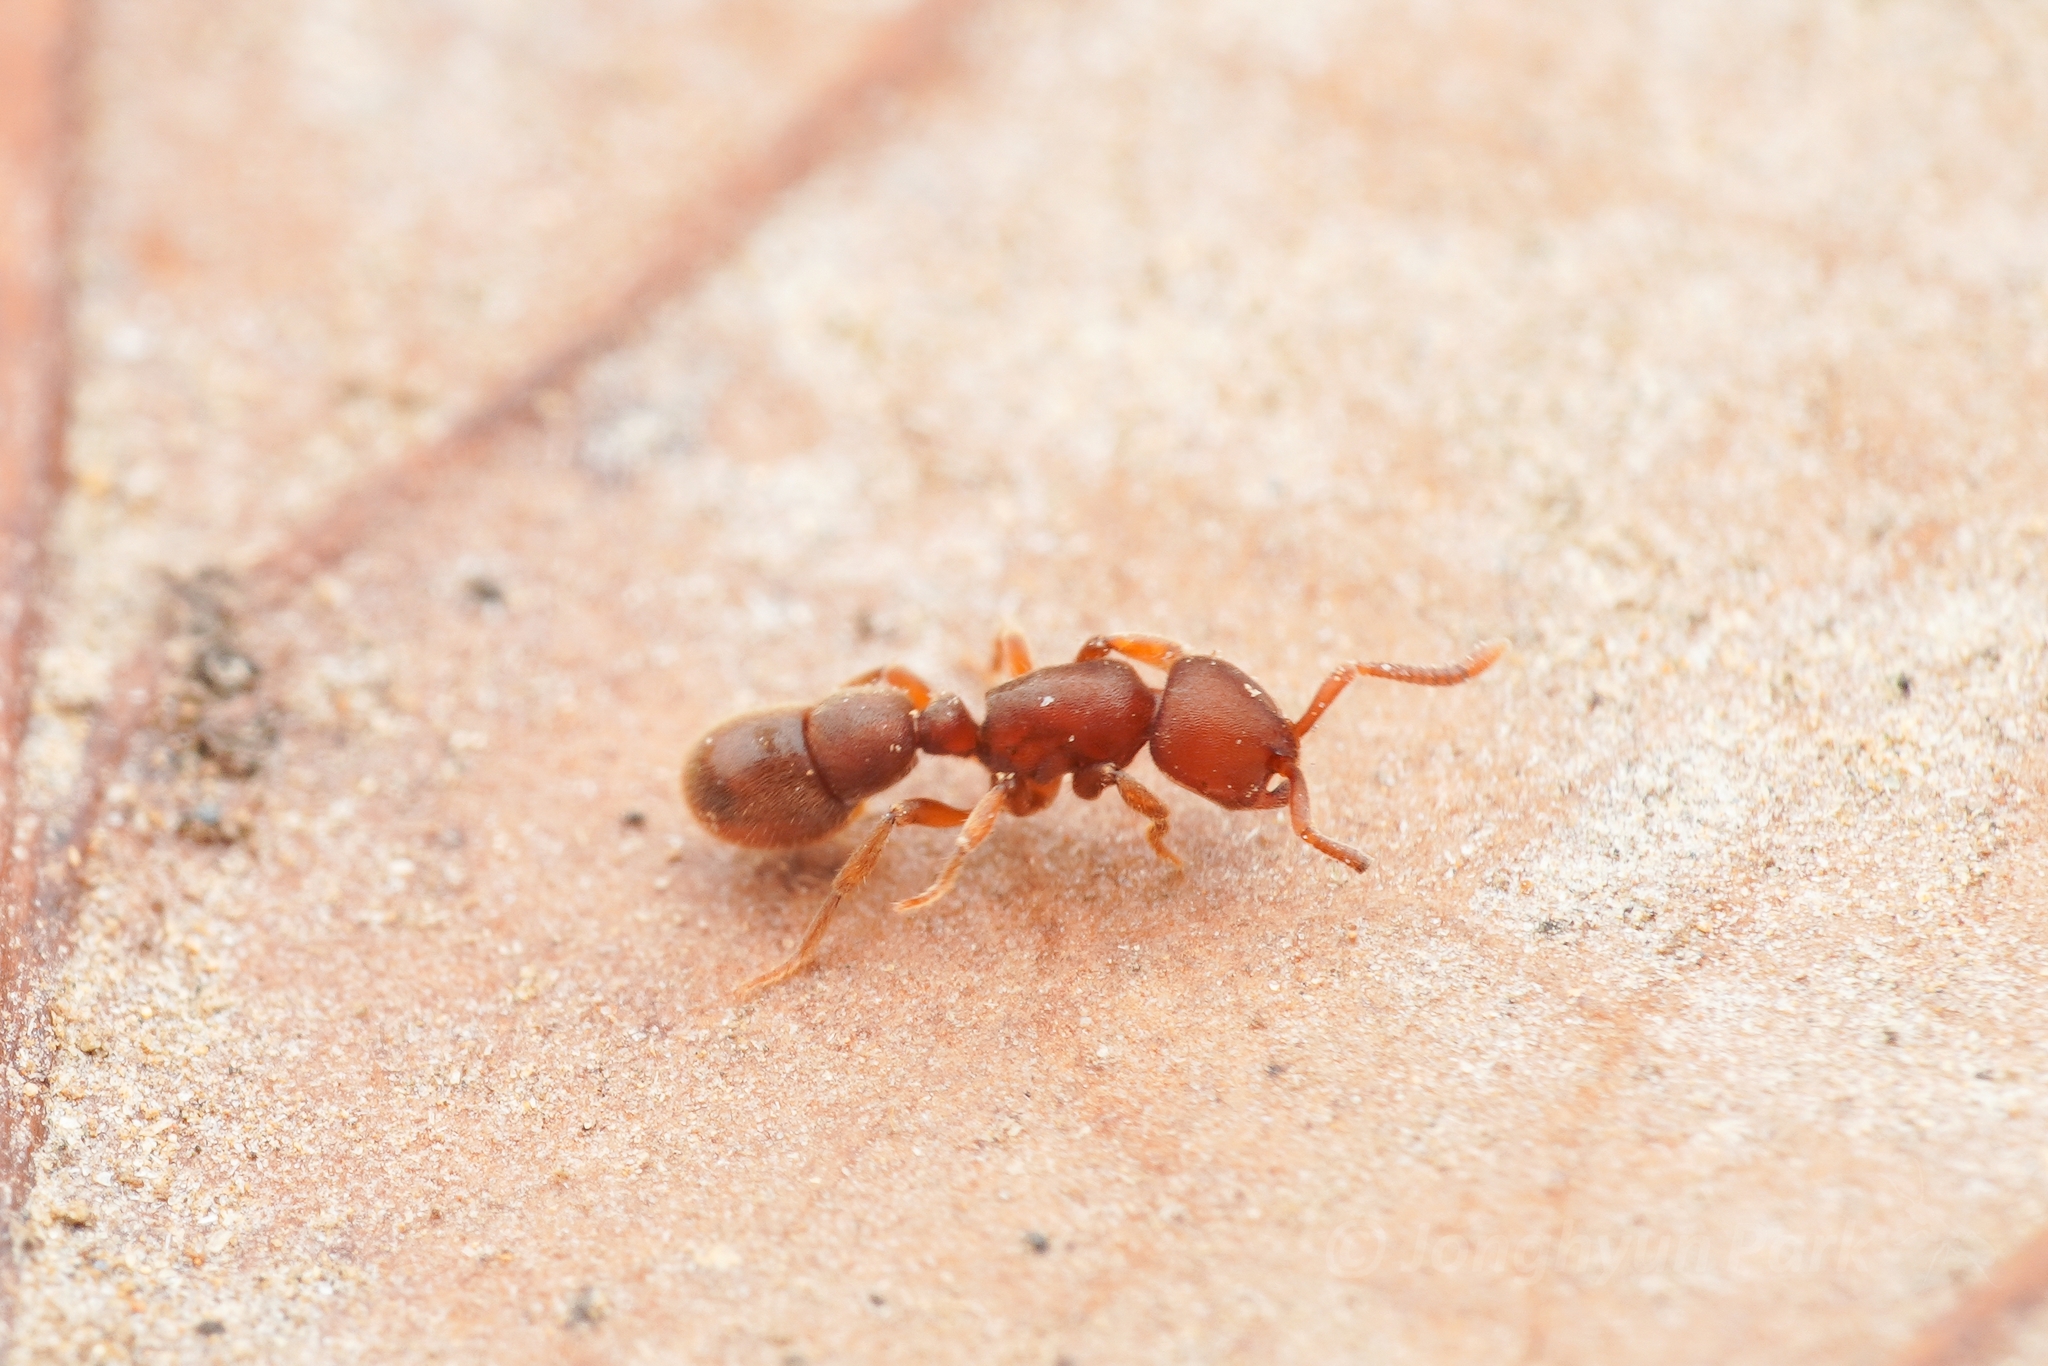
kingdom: Animalia
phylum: Arthropoda
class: Insecta
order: Hymenoptera
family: Formicidae
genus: Proceratium
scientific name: Proceratium itoi
